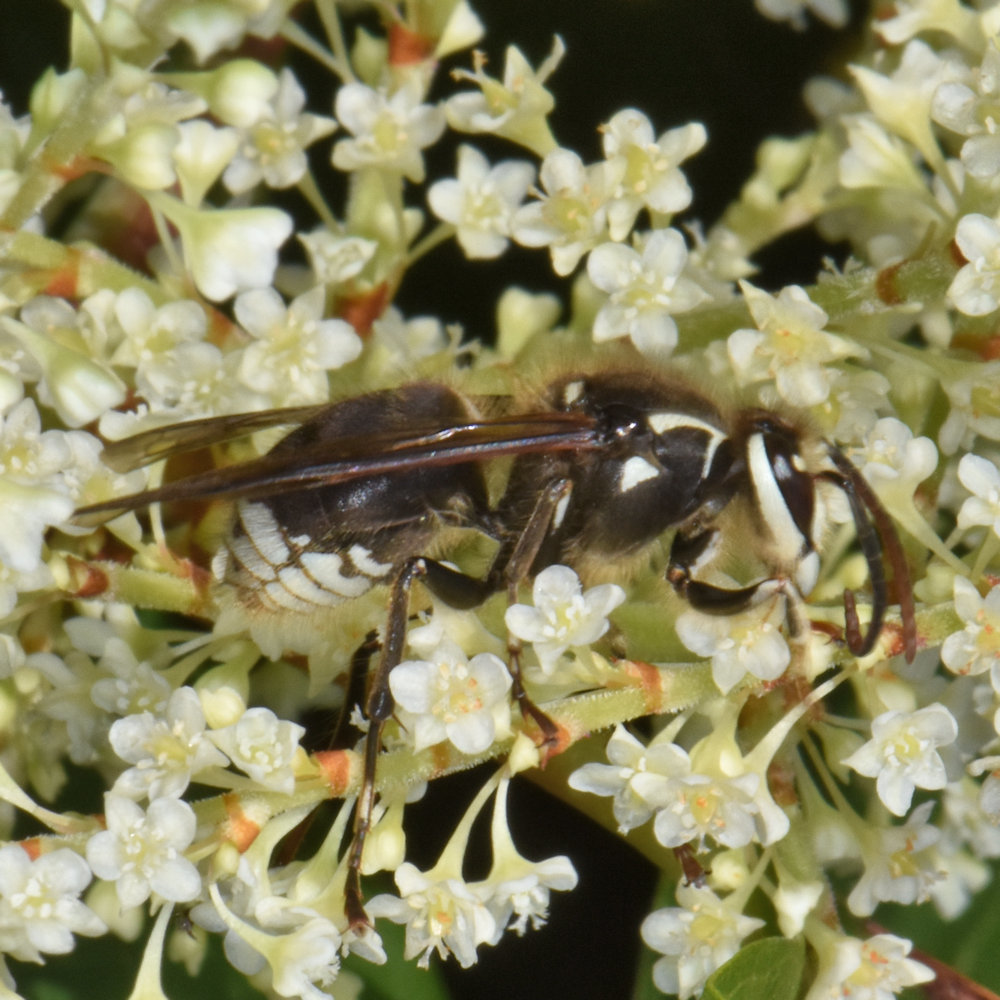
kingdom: Animalia
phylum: Arthropoda
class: Insecta
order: Hymenoptera
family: Vespidae
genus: Dolichovespula
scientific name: Dolichovespula maculata
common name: Bald-faced hornet
